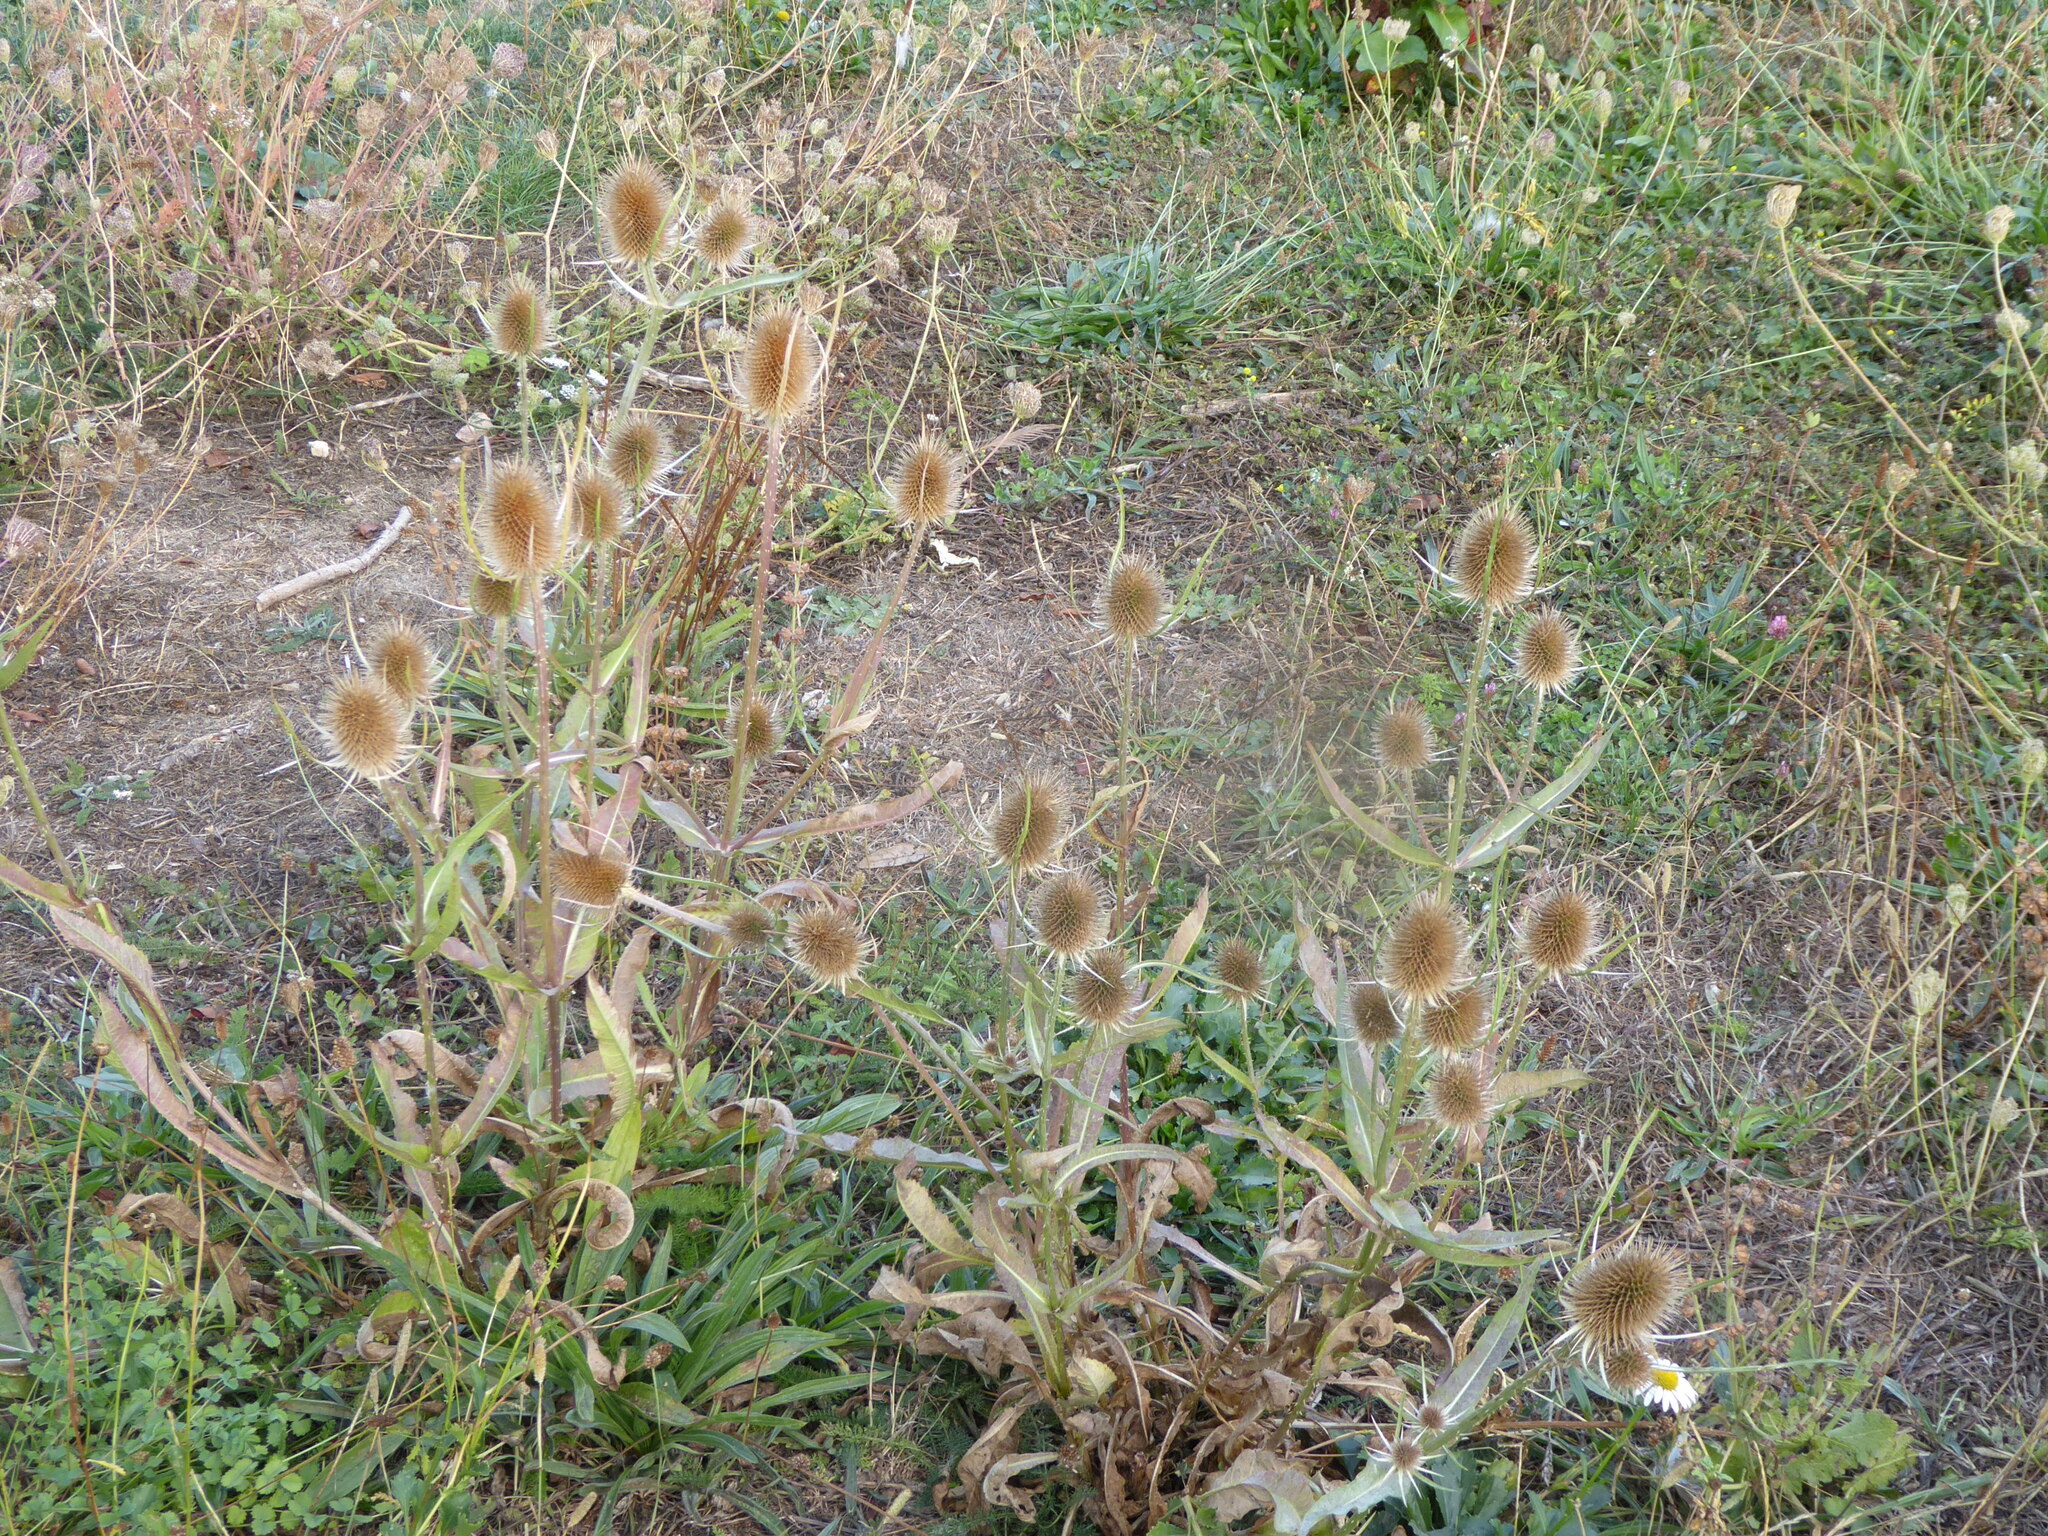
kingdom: Plantae
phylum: Tracheophyta
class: Magnoliopsida
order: Dipsacales
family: Caprifoliaceae
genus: Dipsacus
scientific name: Dipsacus fullonum
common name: Teasel
